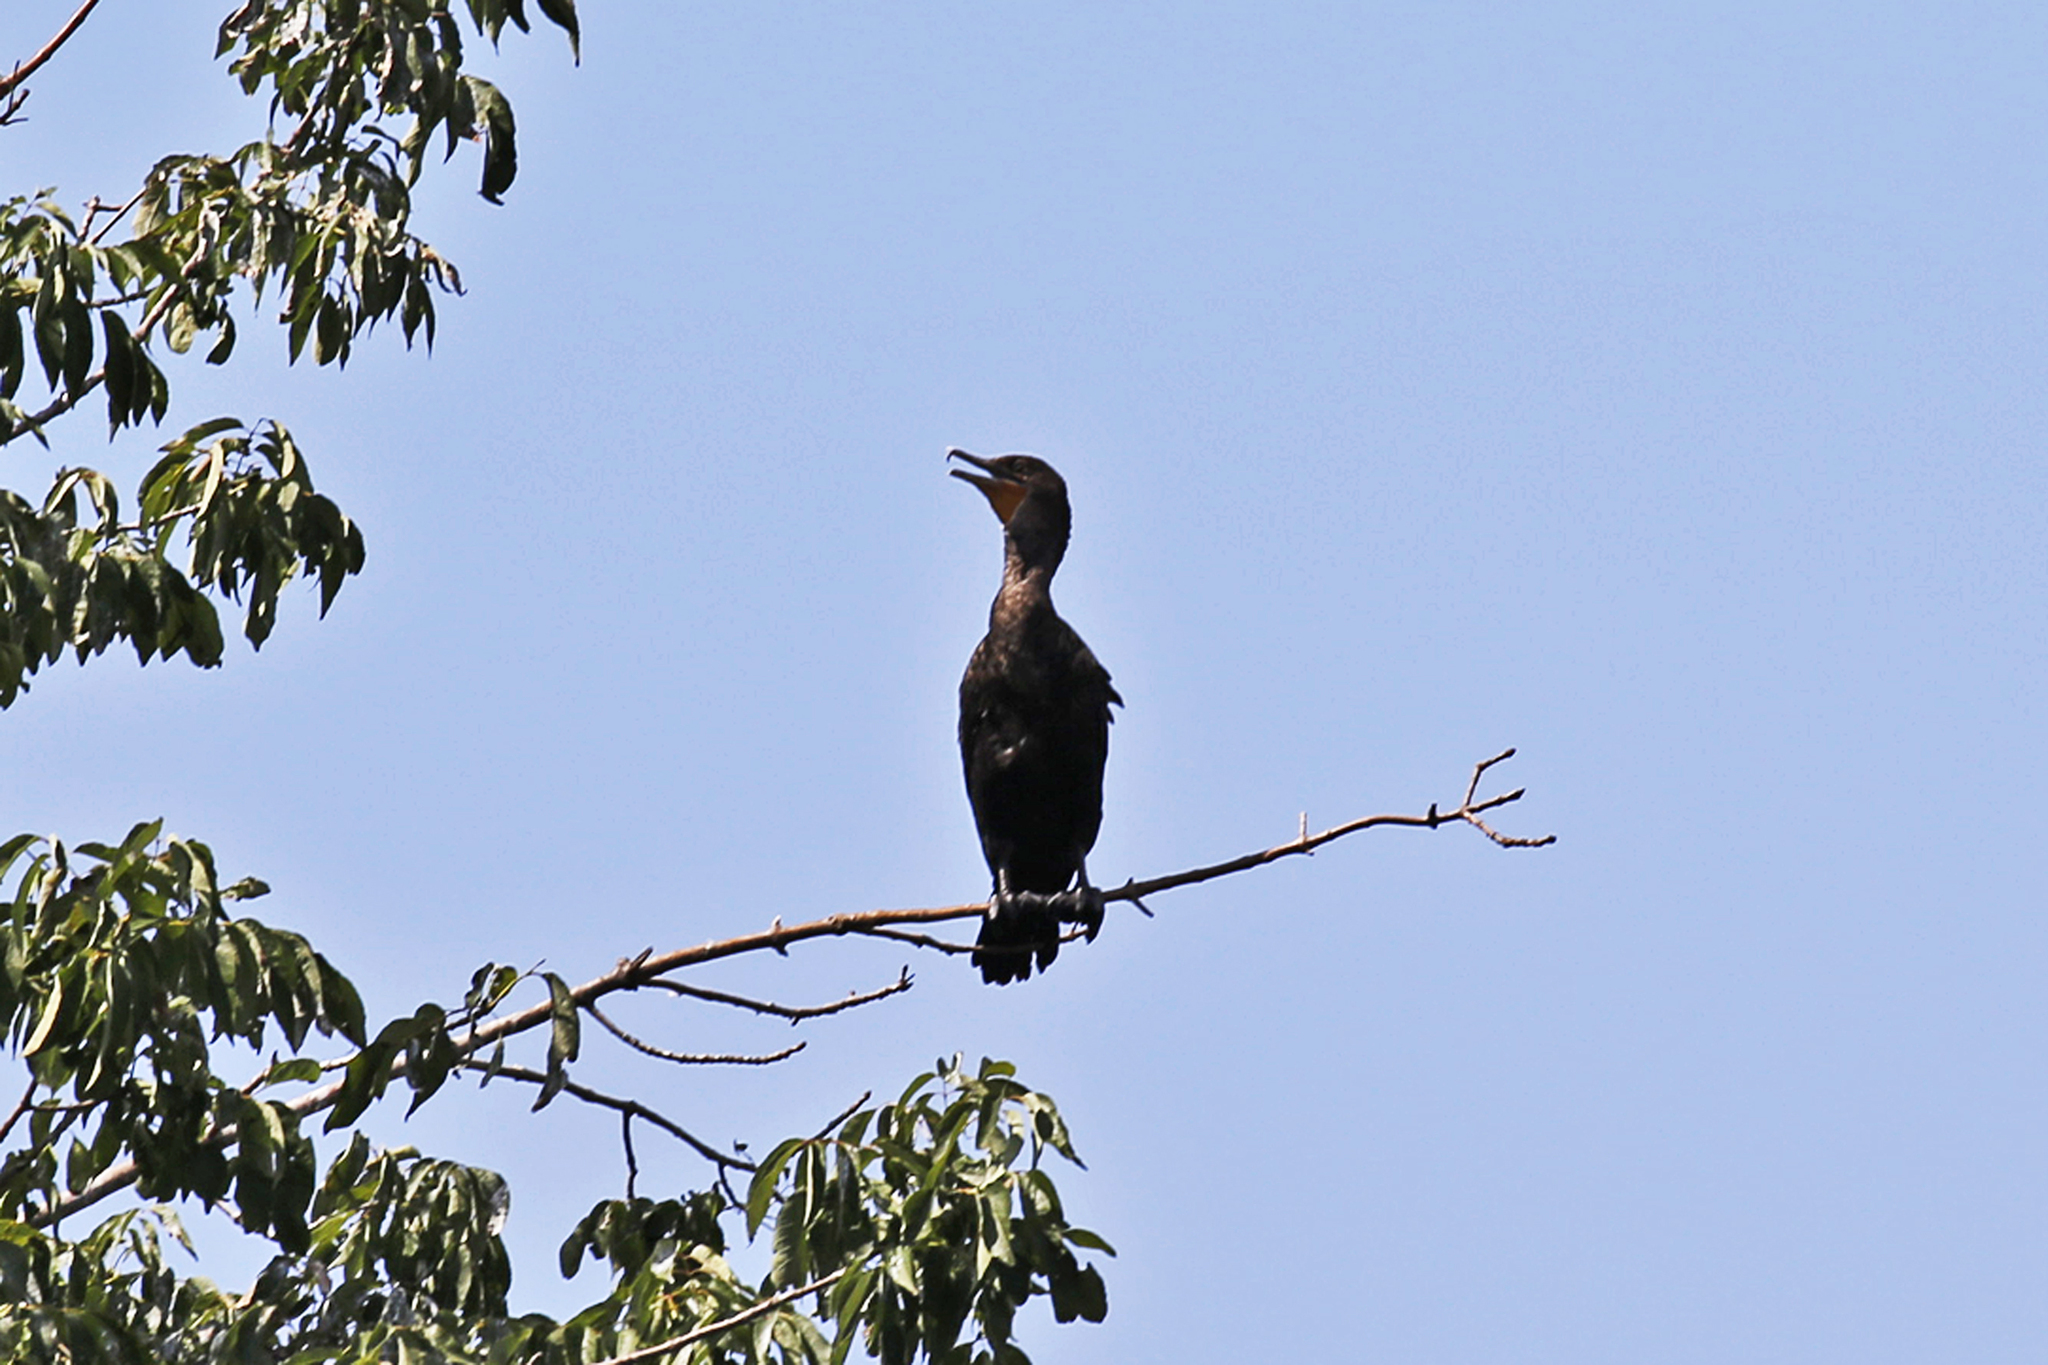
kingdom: Animalia
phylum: Chordata
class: Aves
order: Suliformes
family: Phalacrocoracidae
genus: Phalacrocorax
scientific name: Phalacrocorax auritus
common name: Double-crested cormorant
